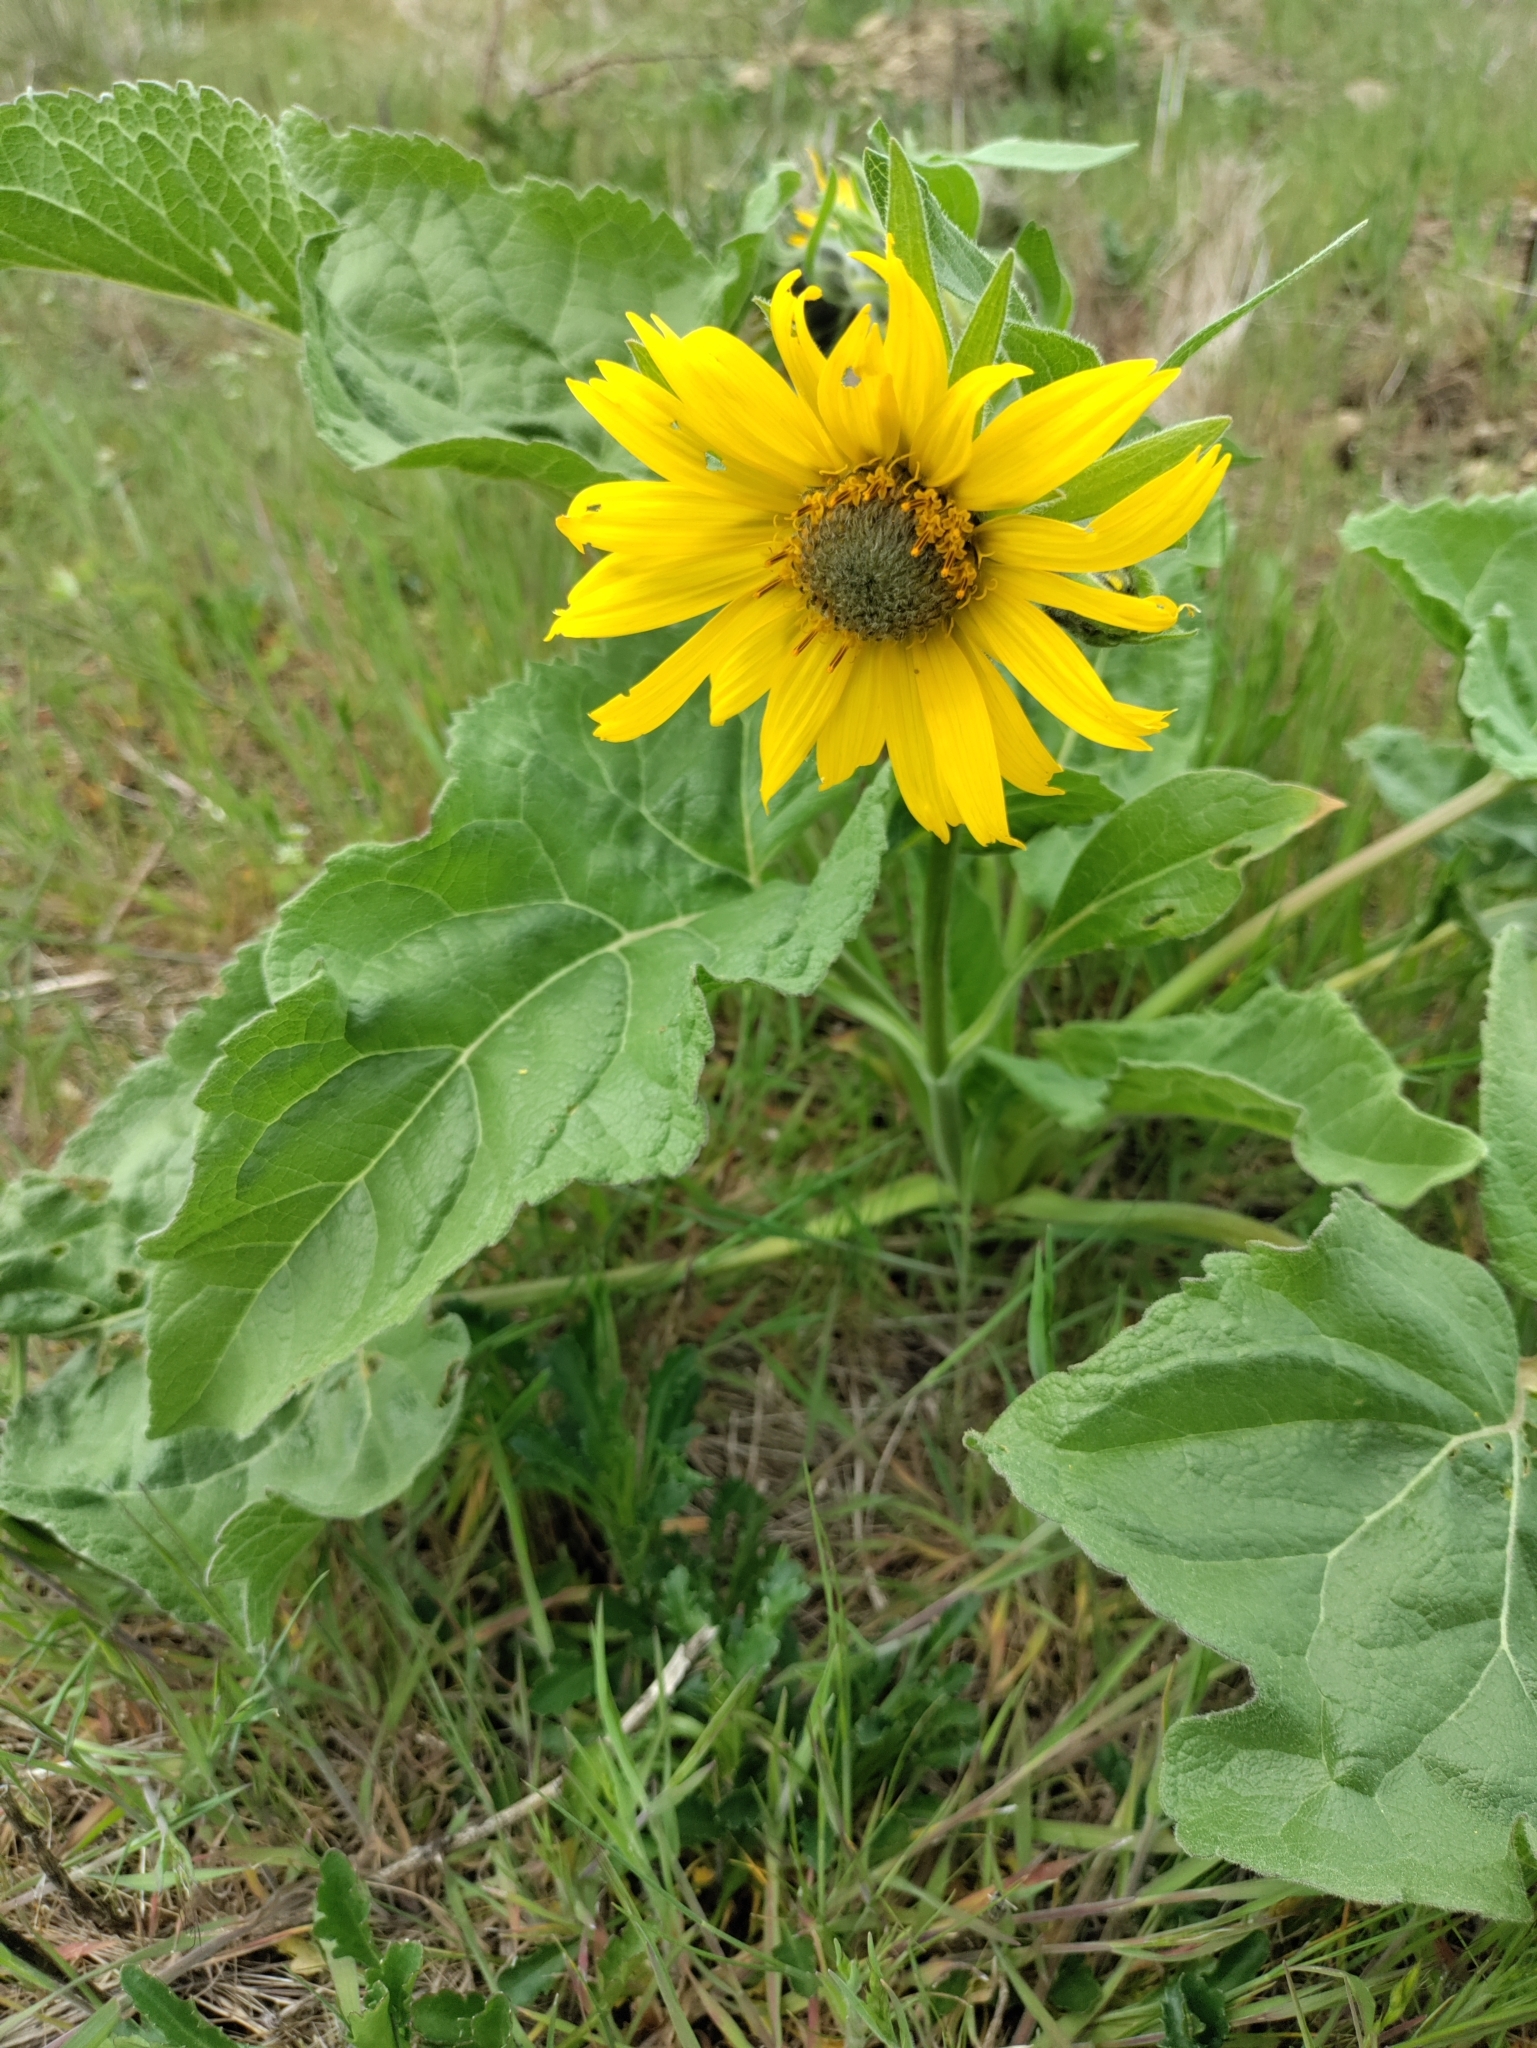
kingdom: Plantae
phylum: Tracheophyta
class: Magnoliopsida
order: Asterales
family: Asteraceae
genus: Balsamorhiza
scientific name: Balsamorhiza deltoidea
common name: Deltoid balsamroot
